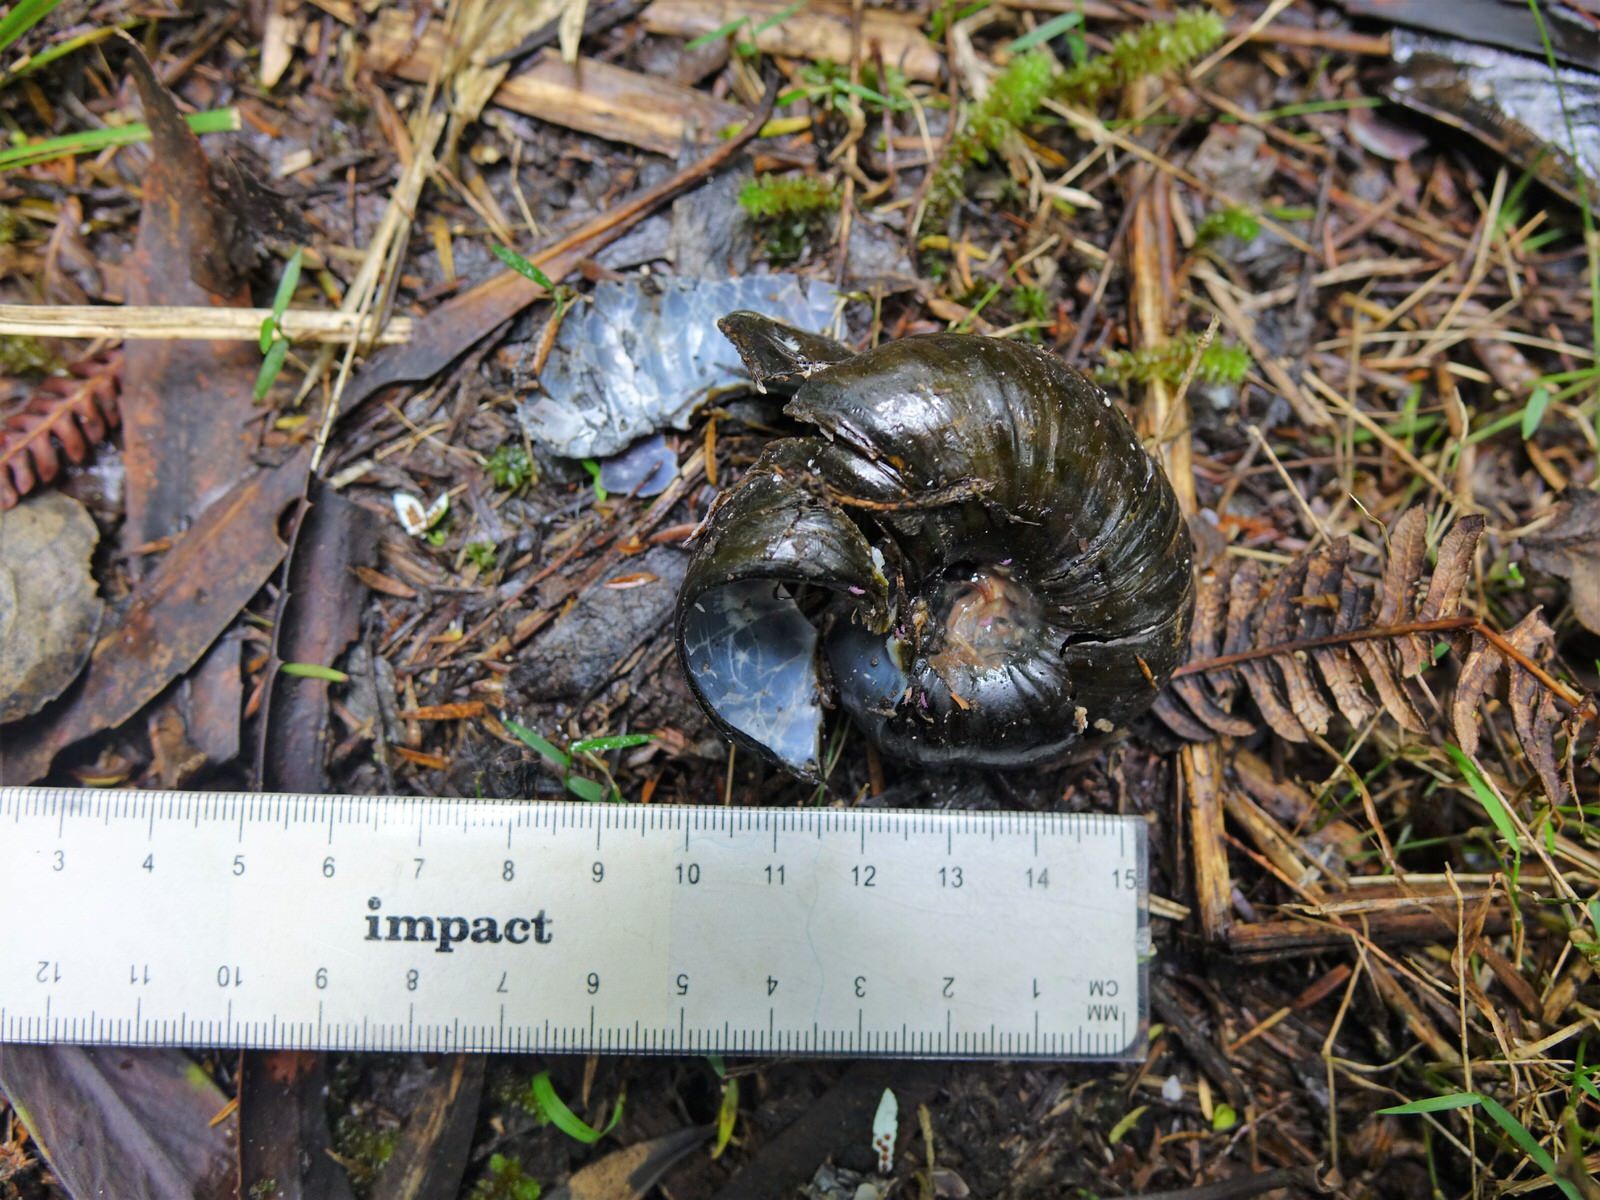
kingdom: Animalia
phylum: Mollusca
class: Gastropoda
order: Stylommatophora
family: Rhytididae
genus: Paryphanta
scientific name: Paryphanta busbyi
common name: Kauri snail
